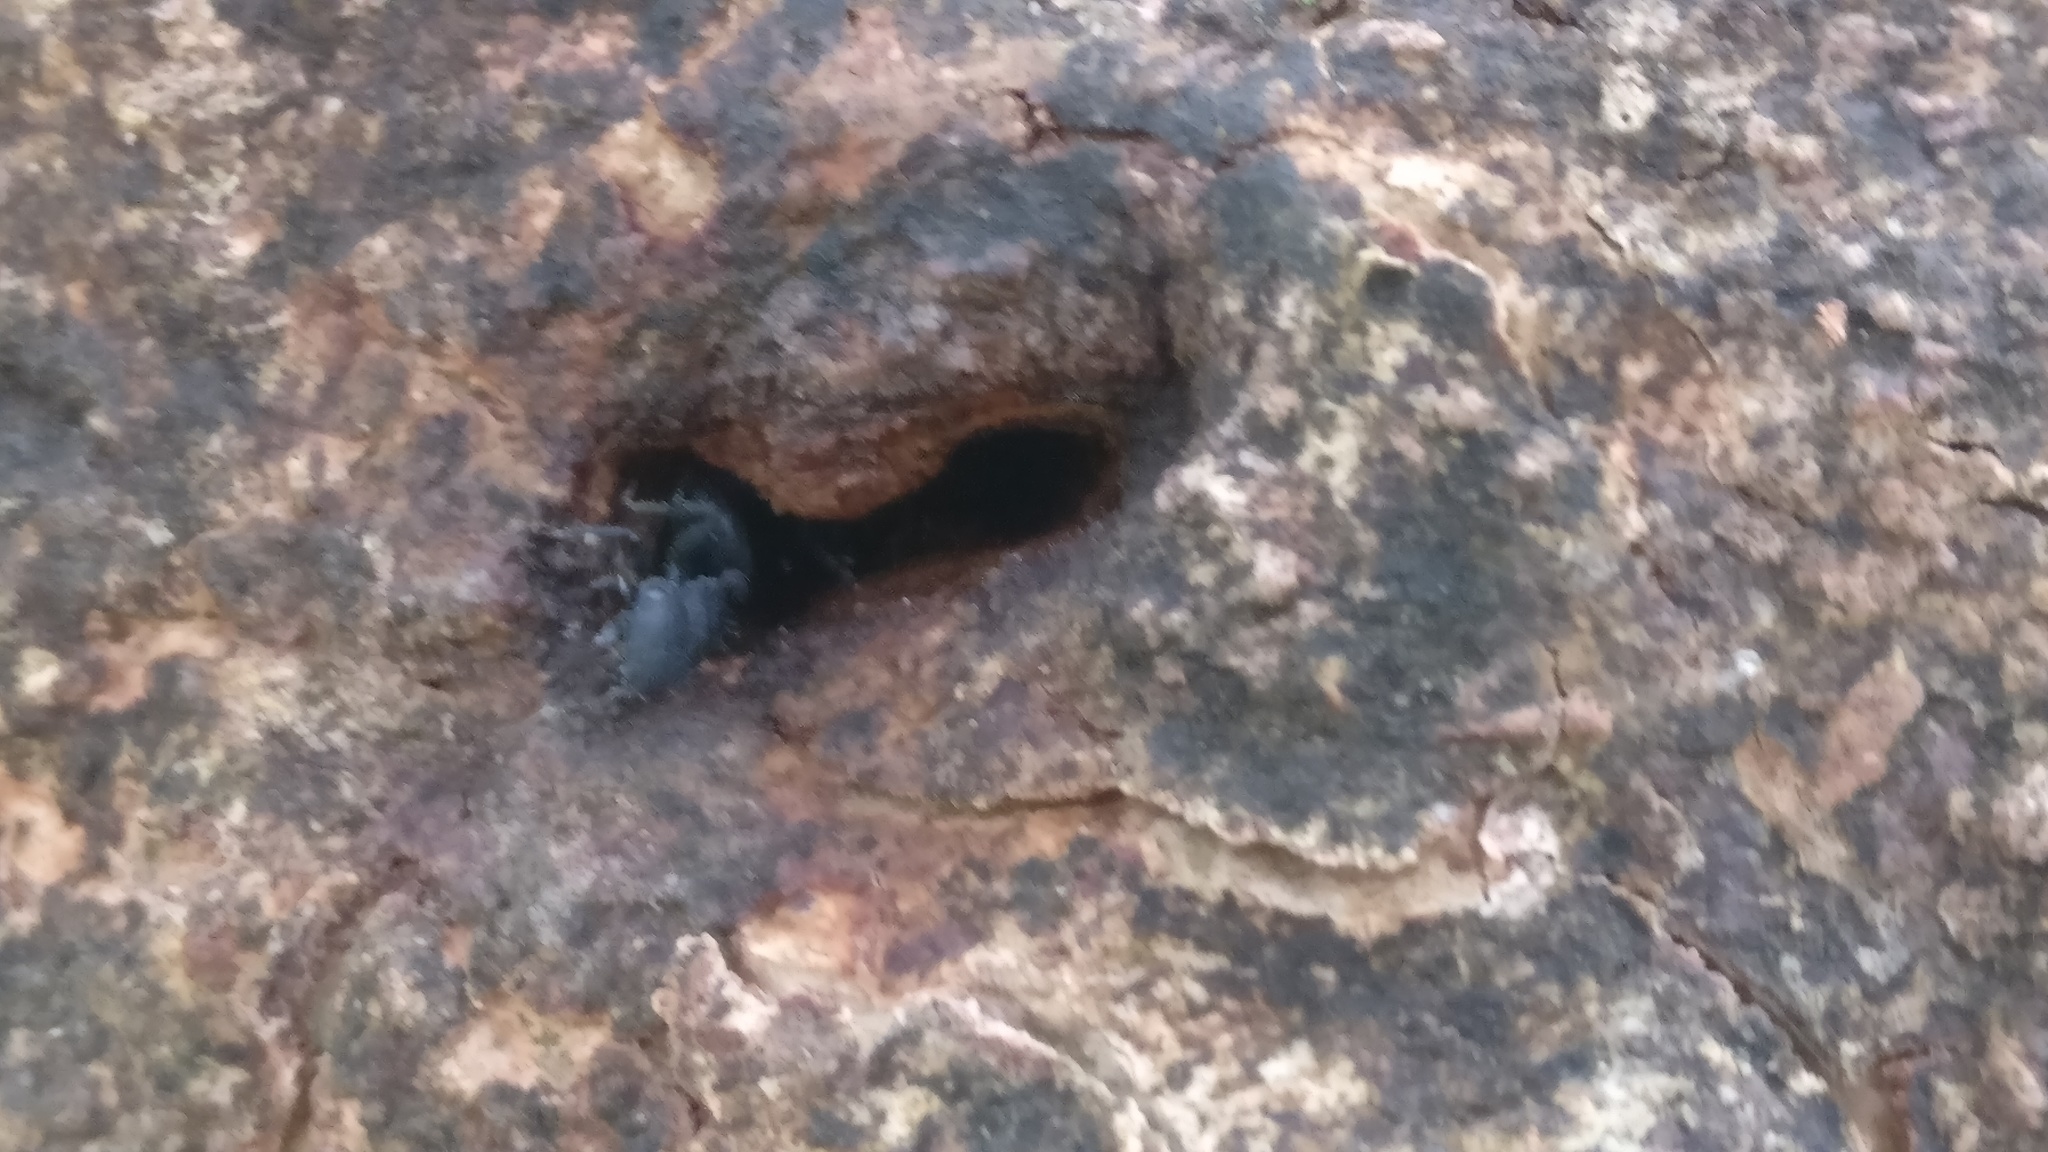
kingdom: Animalia
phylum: Arthropoda
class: Insecta
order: Hymenoptera
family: Formicidae
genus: Cataulacus
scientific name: Cataulacus latus
